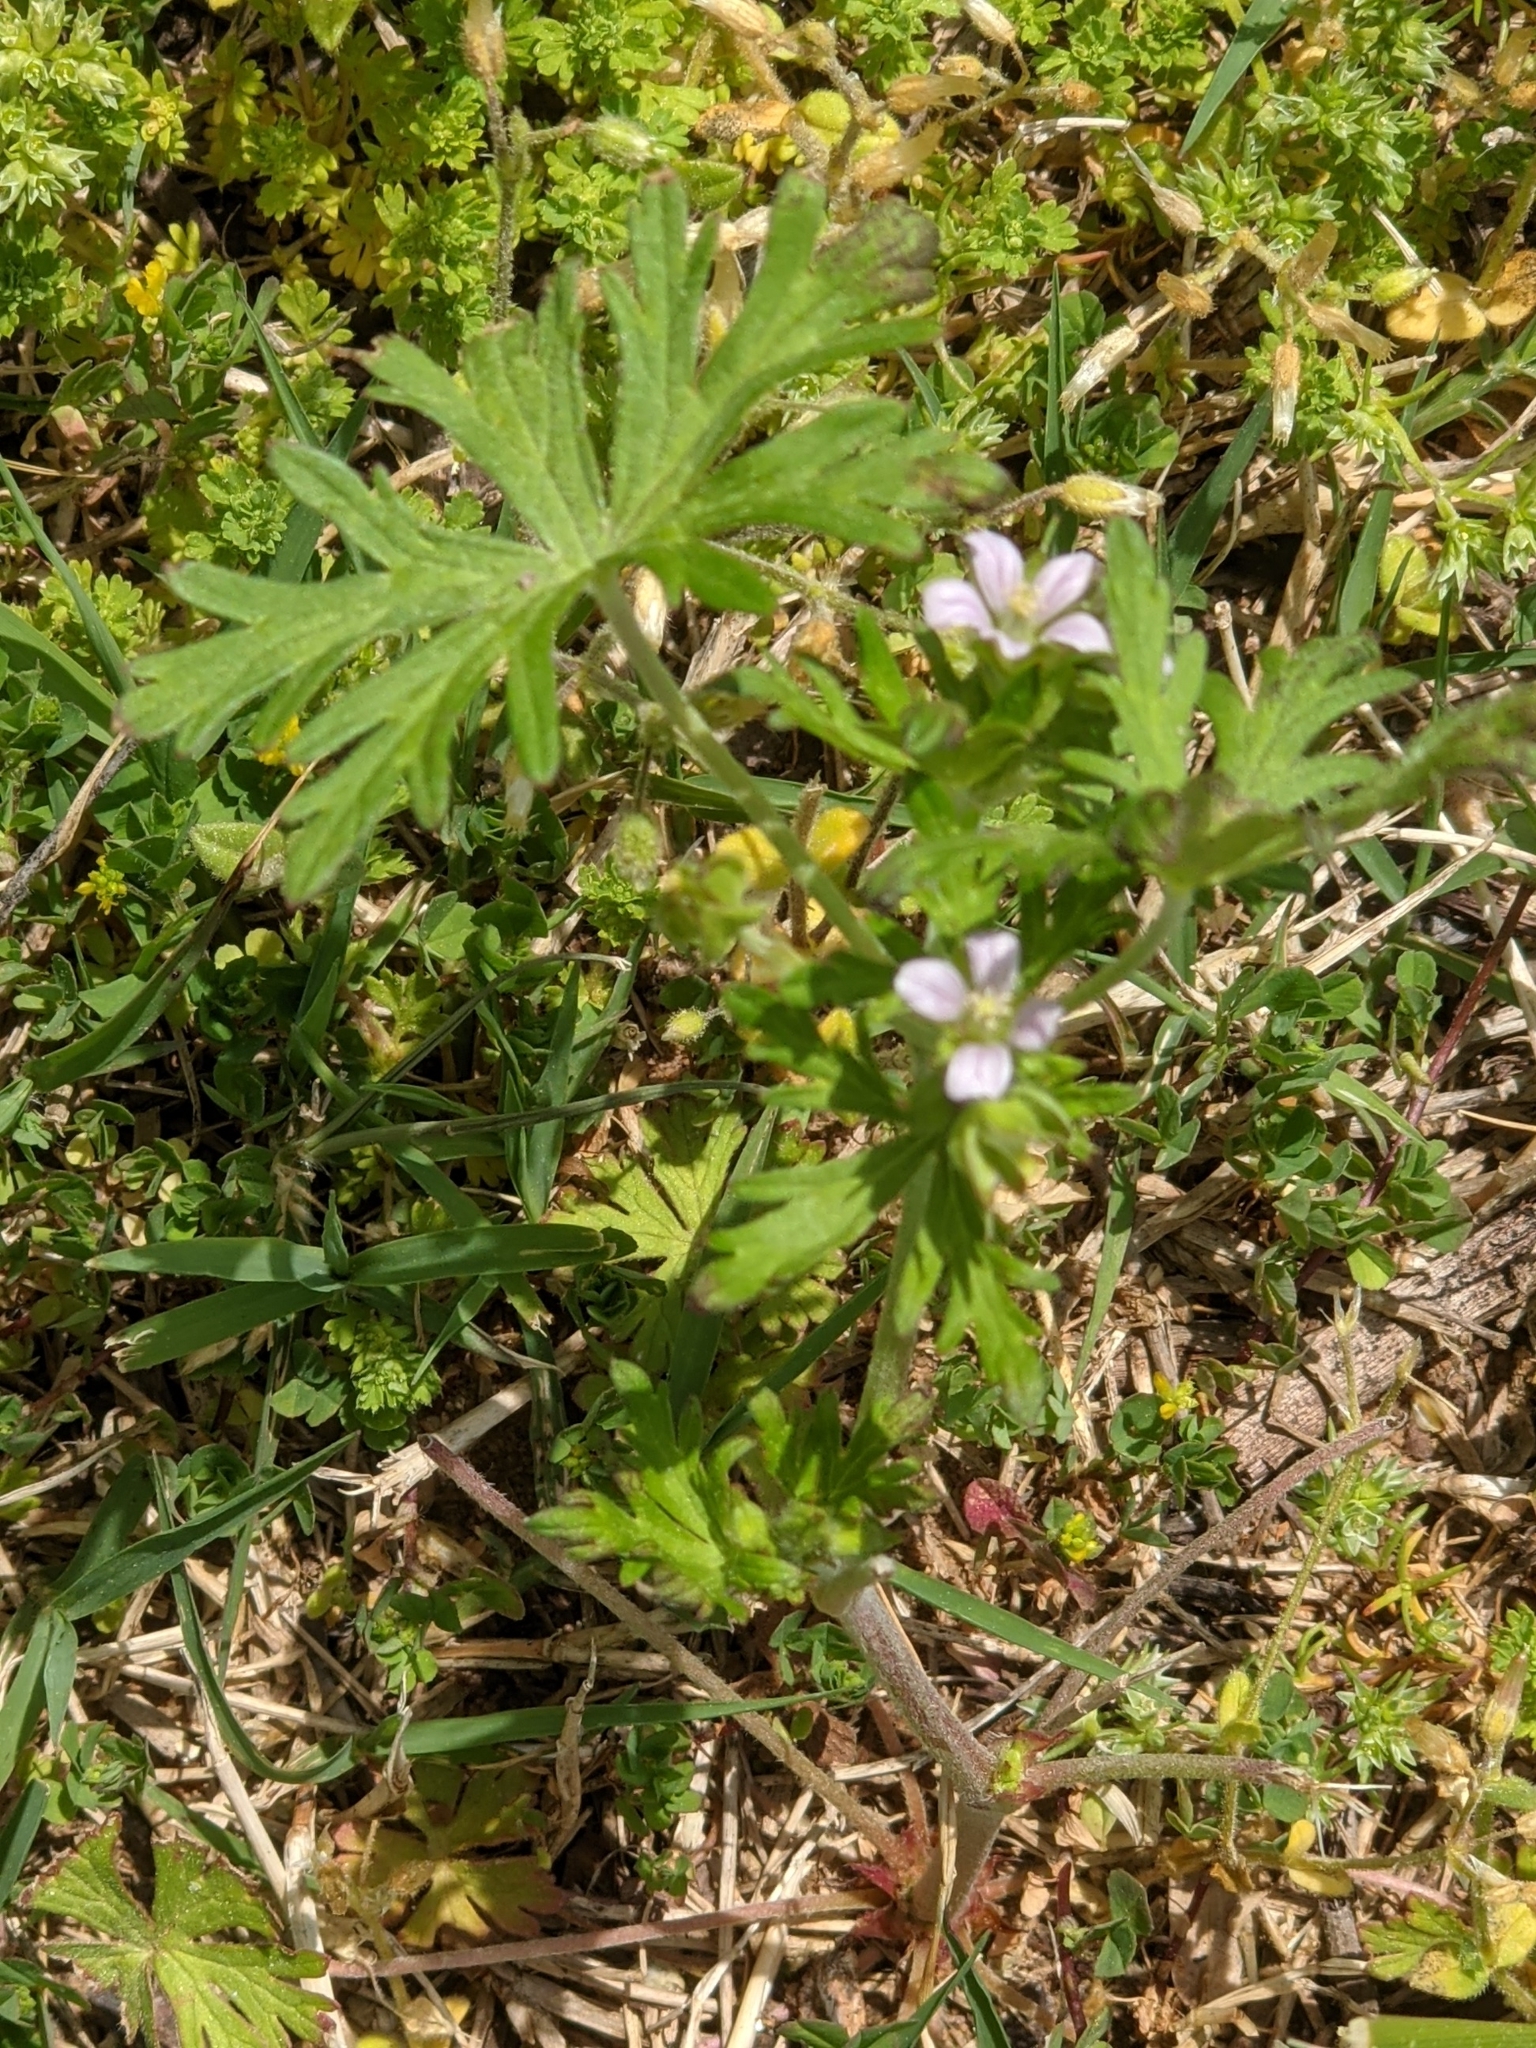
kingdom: Plantae
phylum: Tracheophyta
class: Magnoliopsida
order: Geraniales
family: Geraniaceae
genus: Geranium
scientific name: Geranium carolinianum
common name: Carolina crane's-bill
